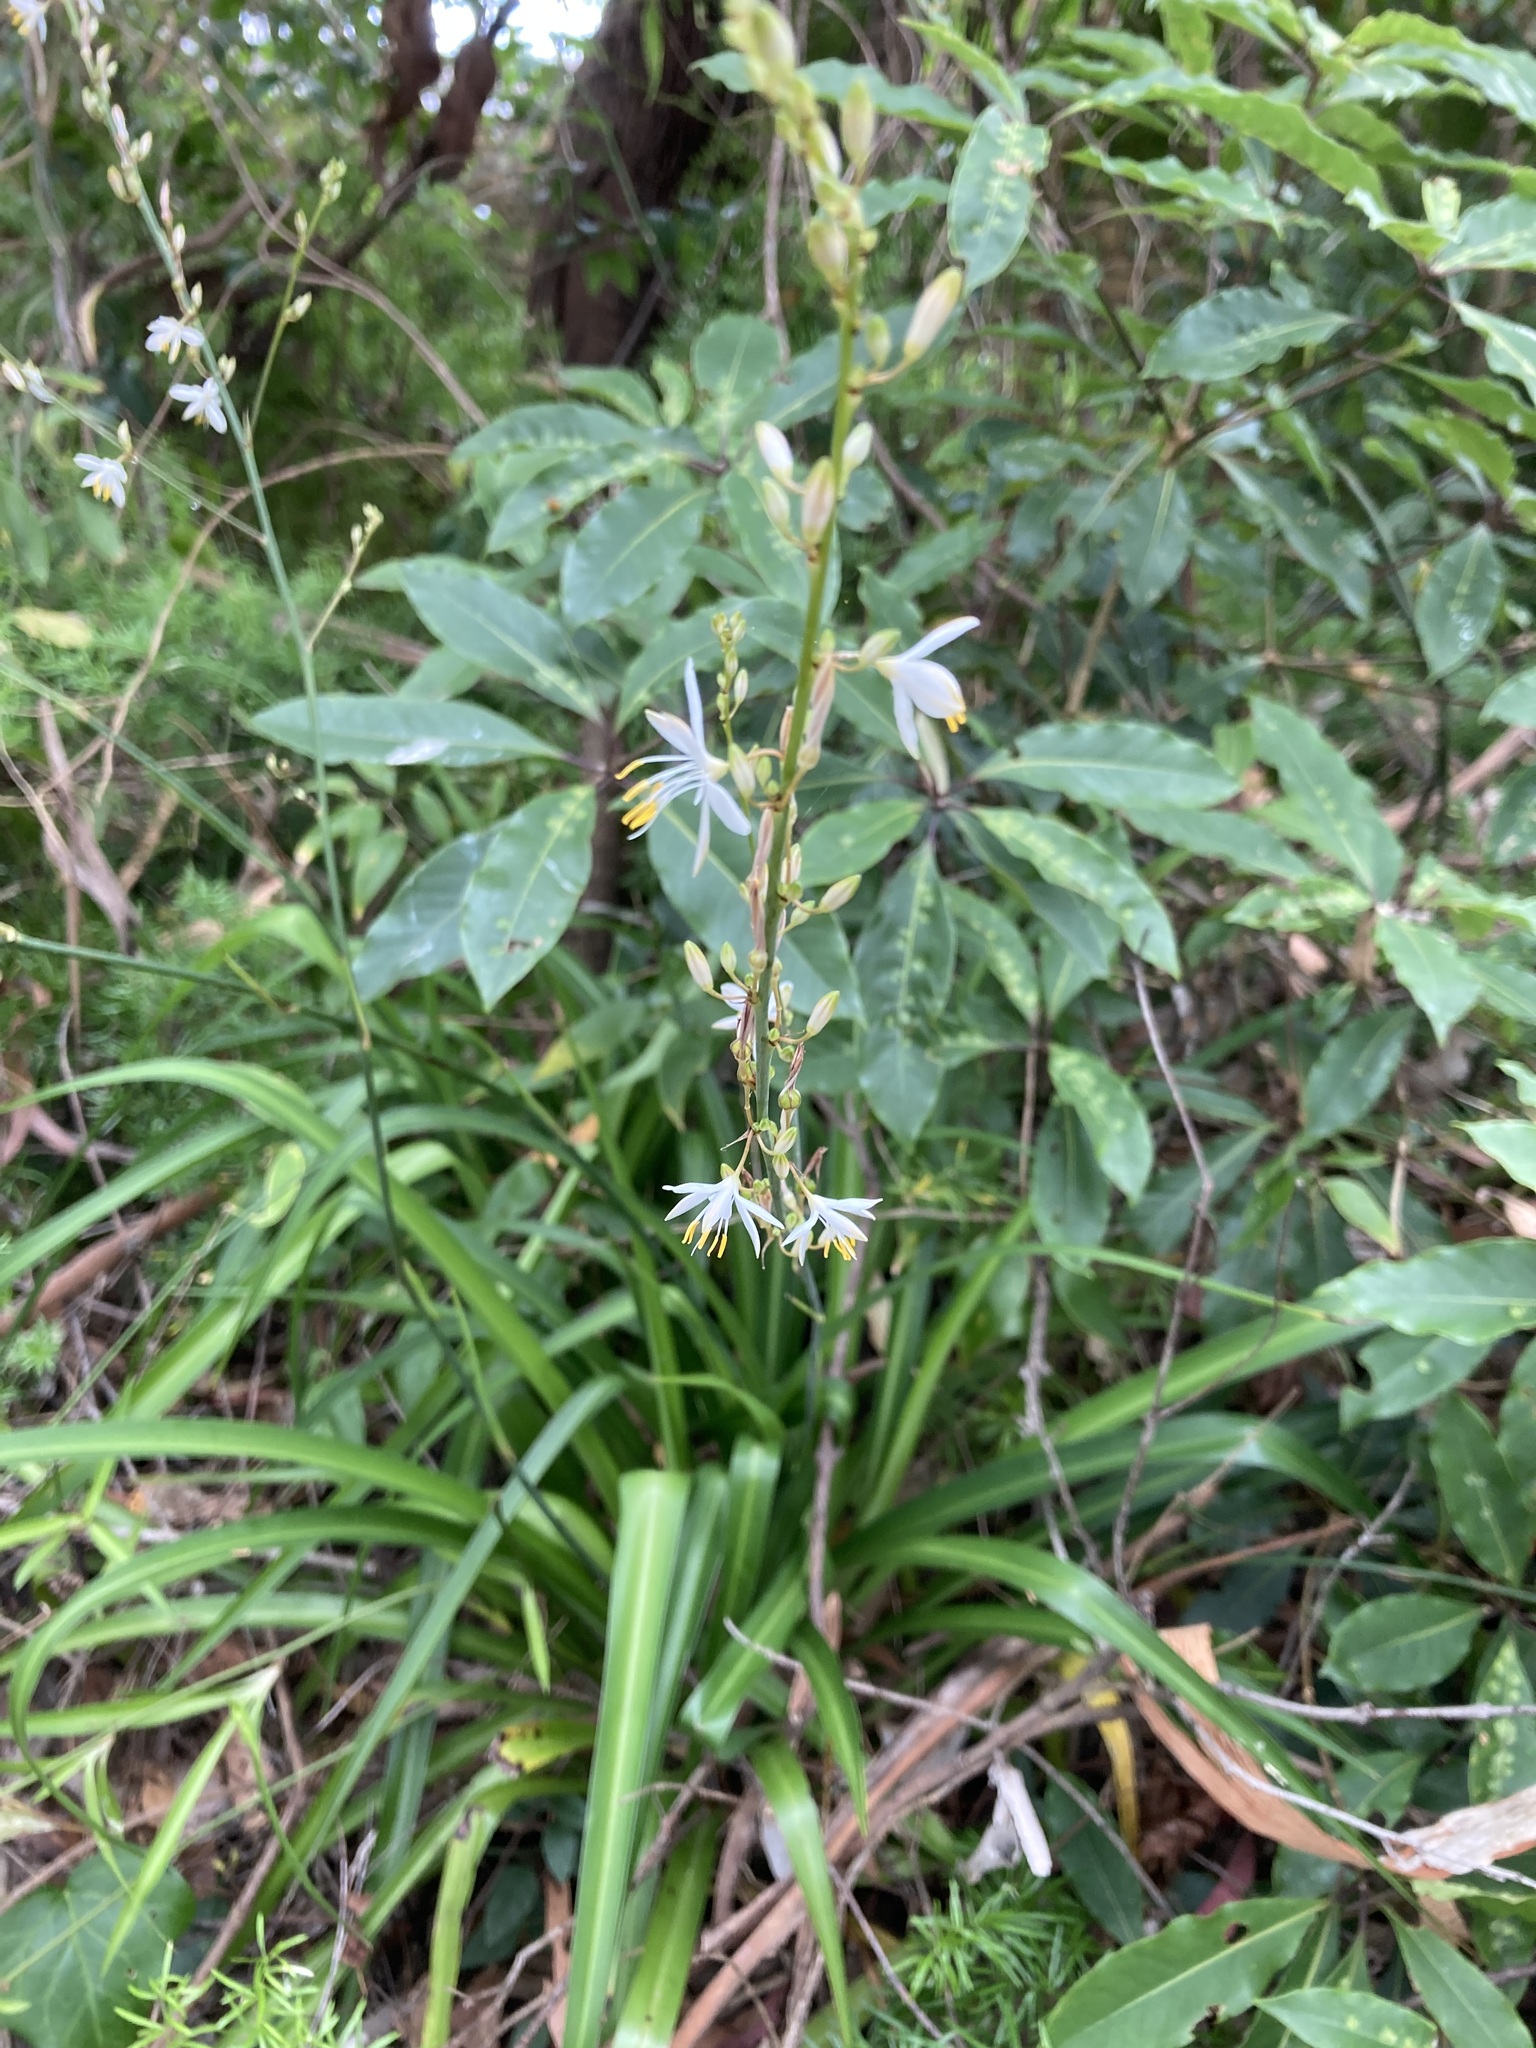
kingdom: Plantae
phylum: Tracheophyta
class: Liliopsida
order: Asparagales
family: Asparagaceae
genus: Chlorophytum
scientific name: Chlorophytum comosum
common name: Spider plant
